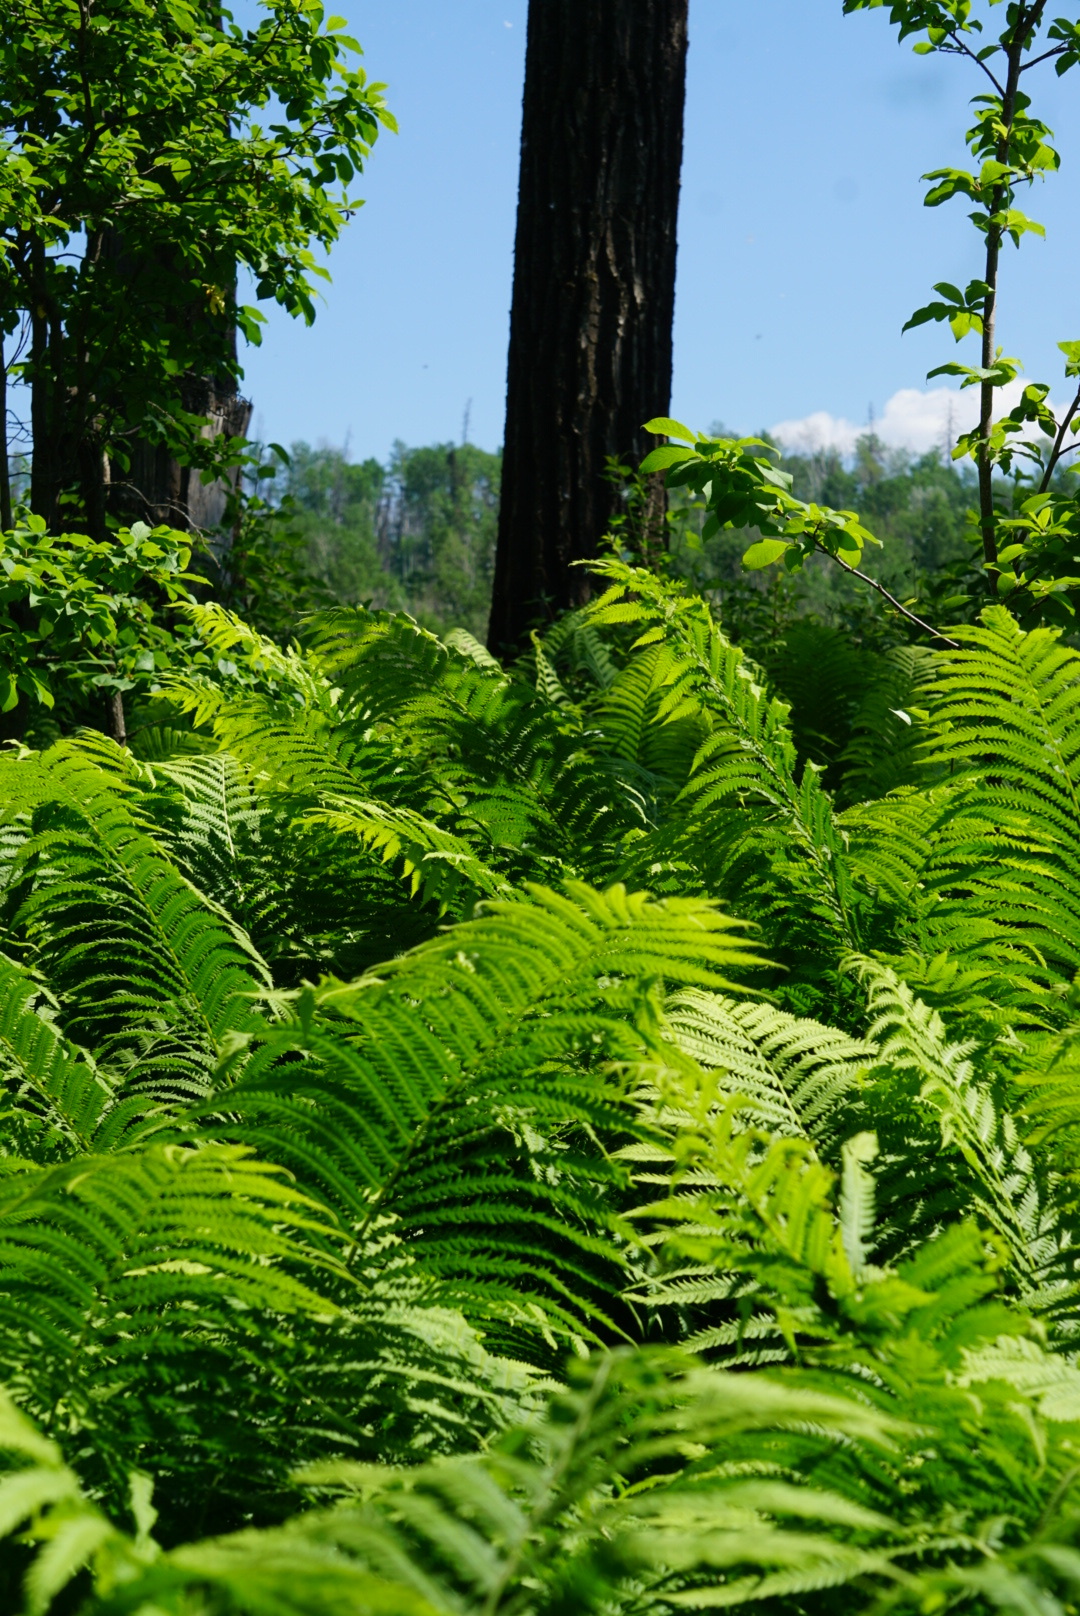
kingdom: Plantae
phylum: Tracheophyta
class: Polypodiopsida
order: Polypodiales
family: Onocleaceae
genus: Matteuccia
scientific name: Matteuccia struthiopteris
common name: Ostrich fern
